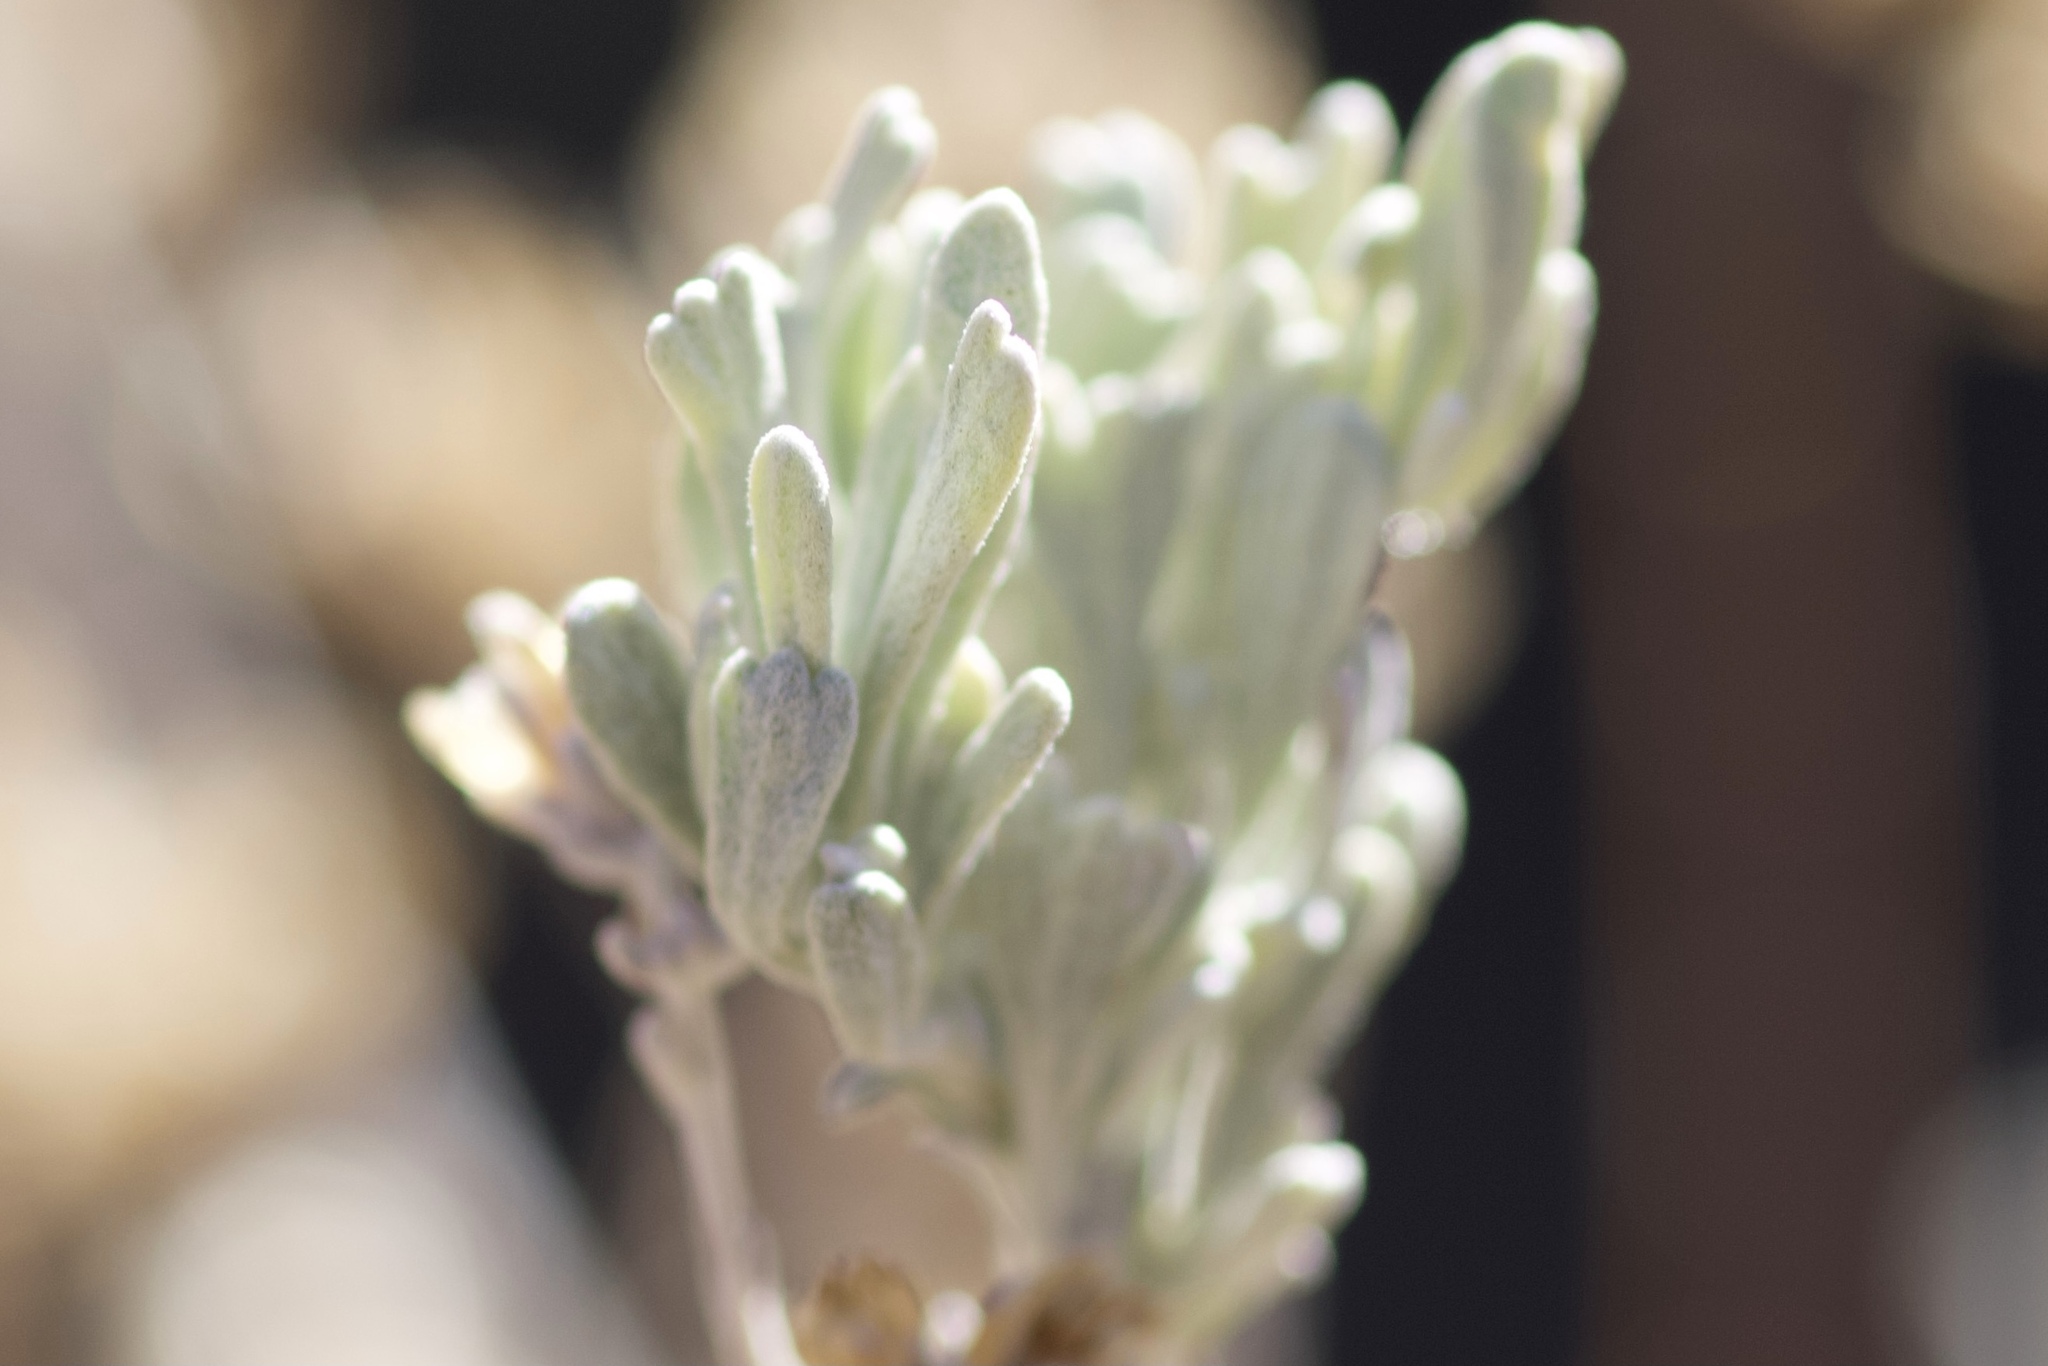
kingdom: Plantae
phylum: Tracheophyta
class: Magnoliopsida
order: Asterales
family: Asteraceae
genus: Artemisia
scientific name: Artemisia tridentata
